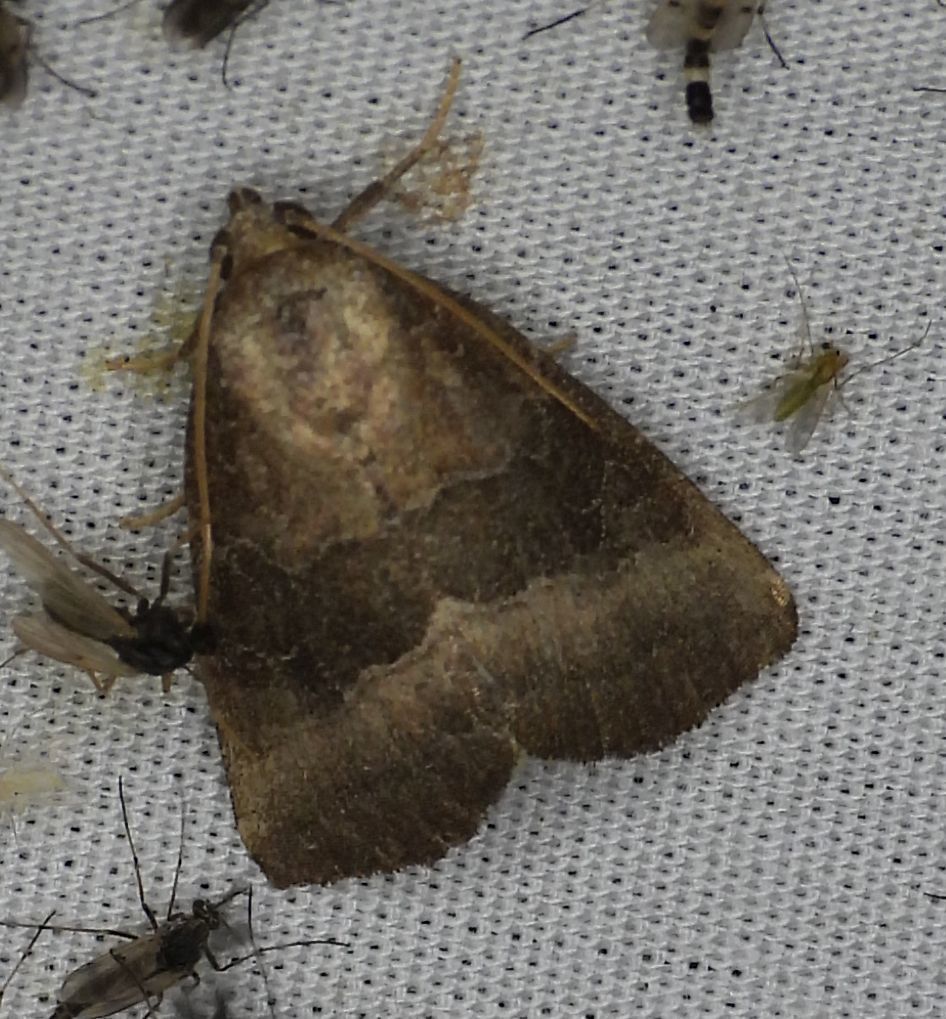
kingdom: Animalia
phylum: Arthropoda
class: Insecta
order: Lepidoptera
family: Noctuidae
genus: Ogdoconta
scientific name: Ogdoconta cinereola
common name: Common pinkband
